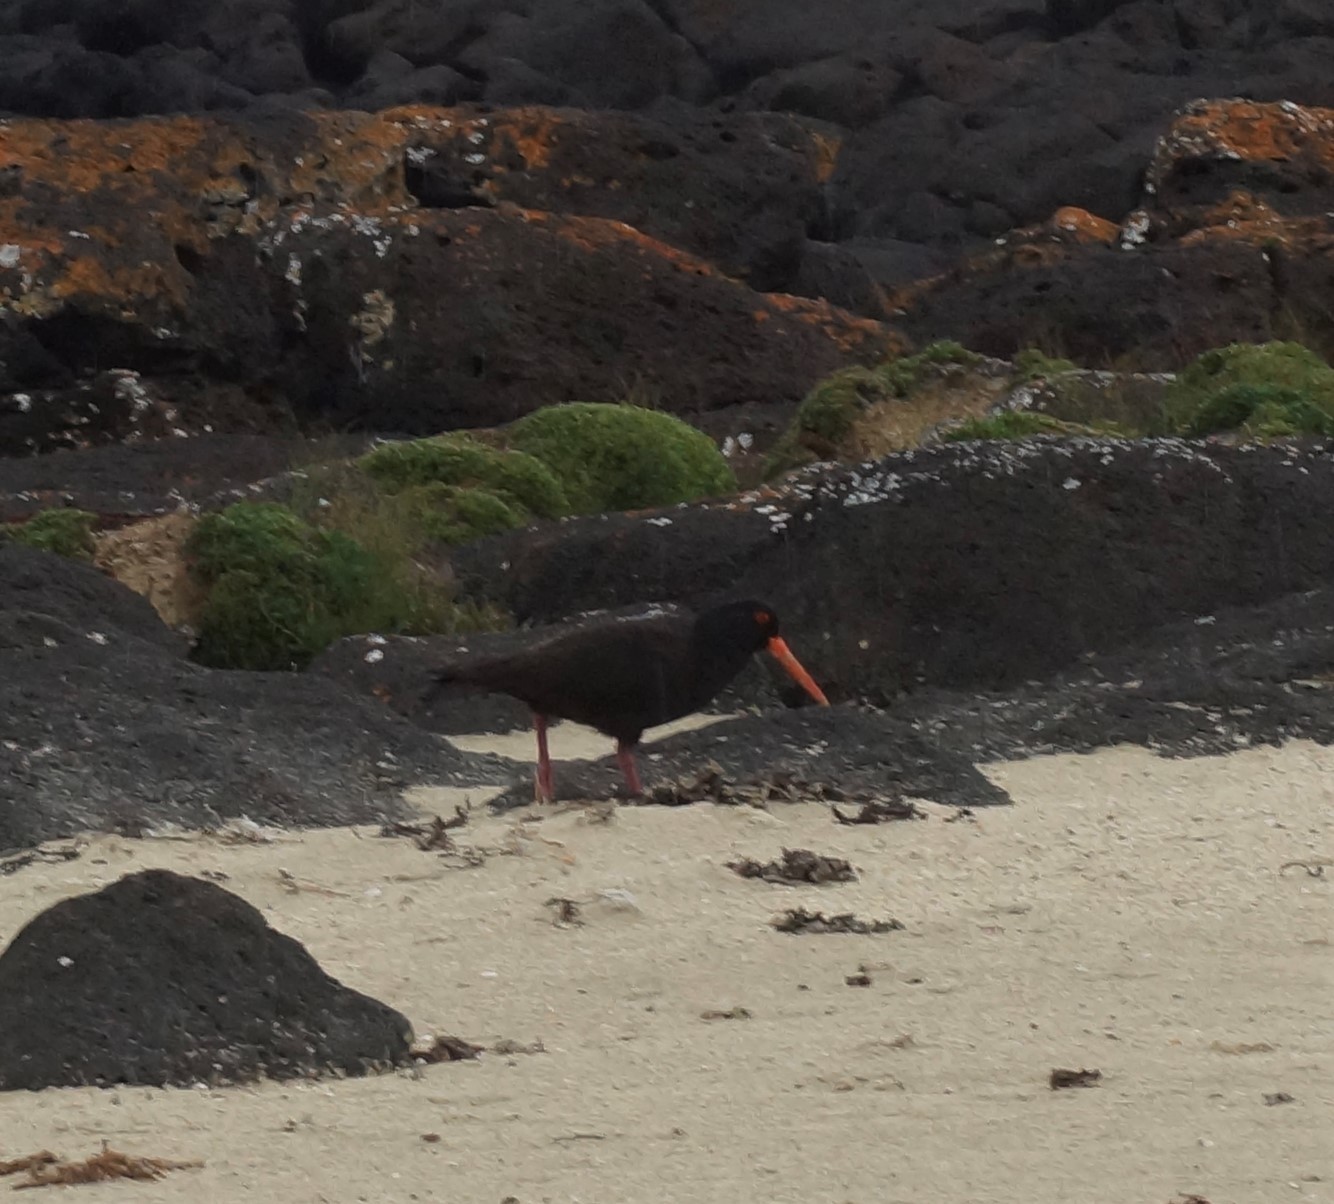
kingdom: Animalia
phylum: Chordata
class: Aves
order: Charadriiformes
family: Haematopodidae
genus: Haematopus
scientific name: Haematopus fuliginosus
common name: Sooty oystercatcher
